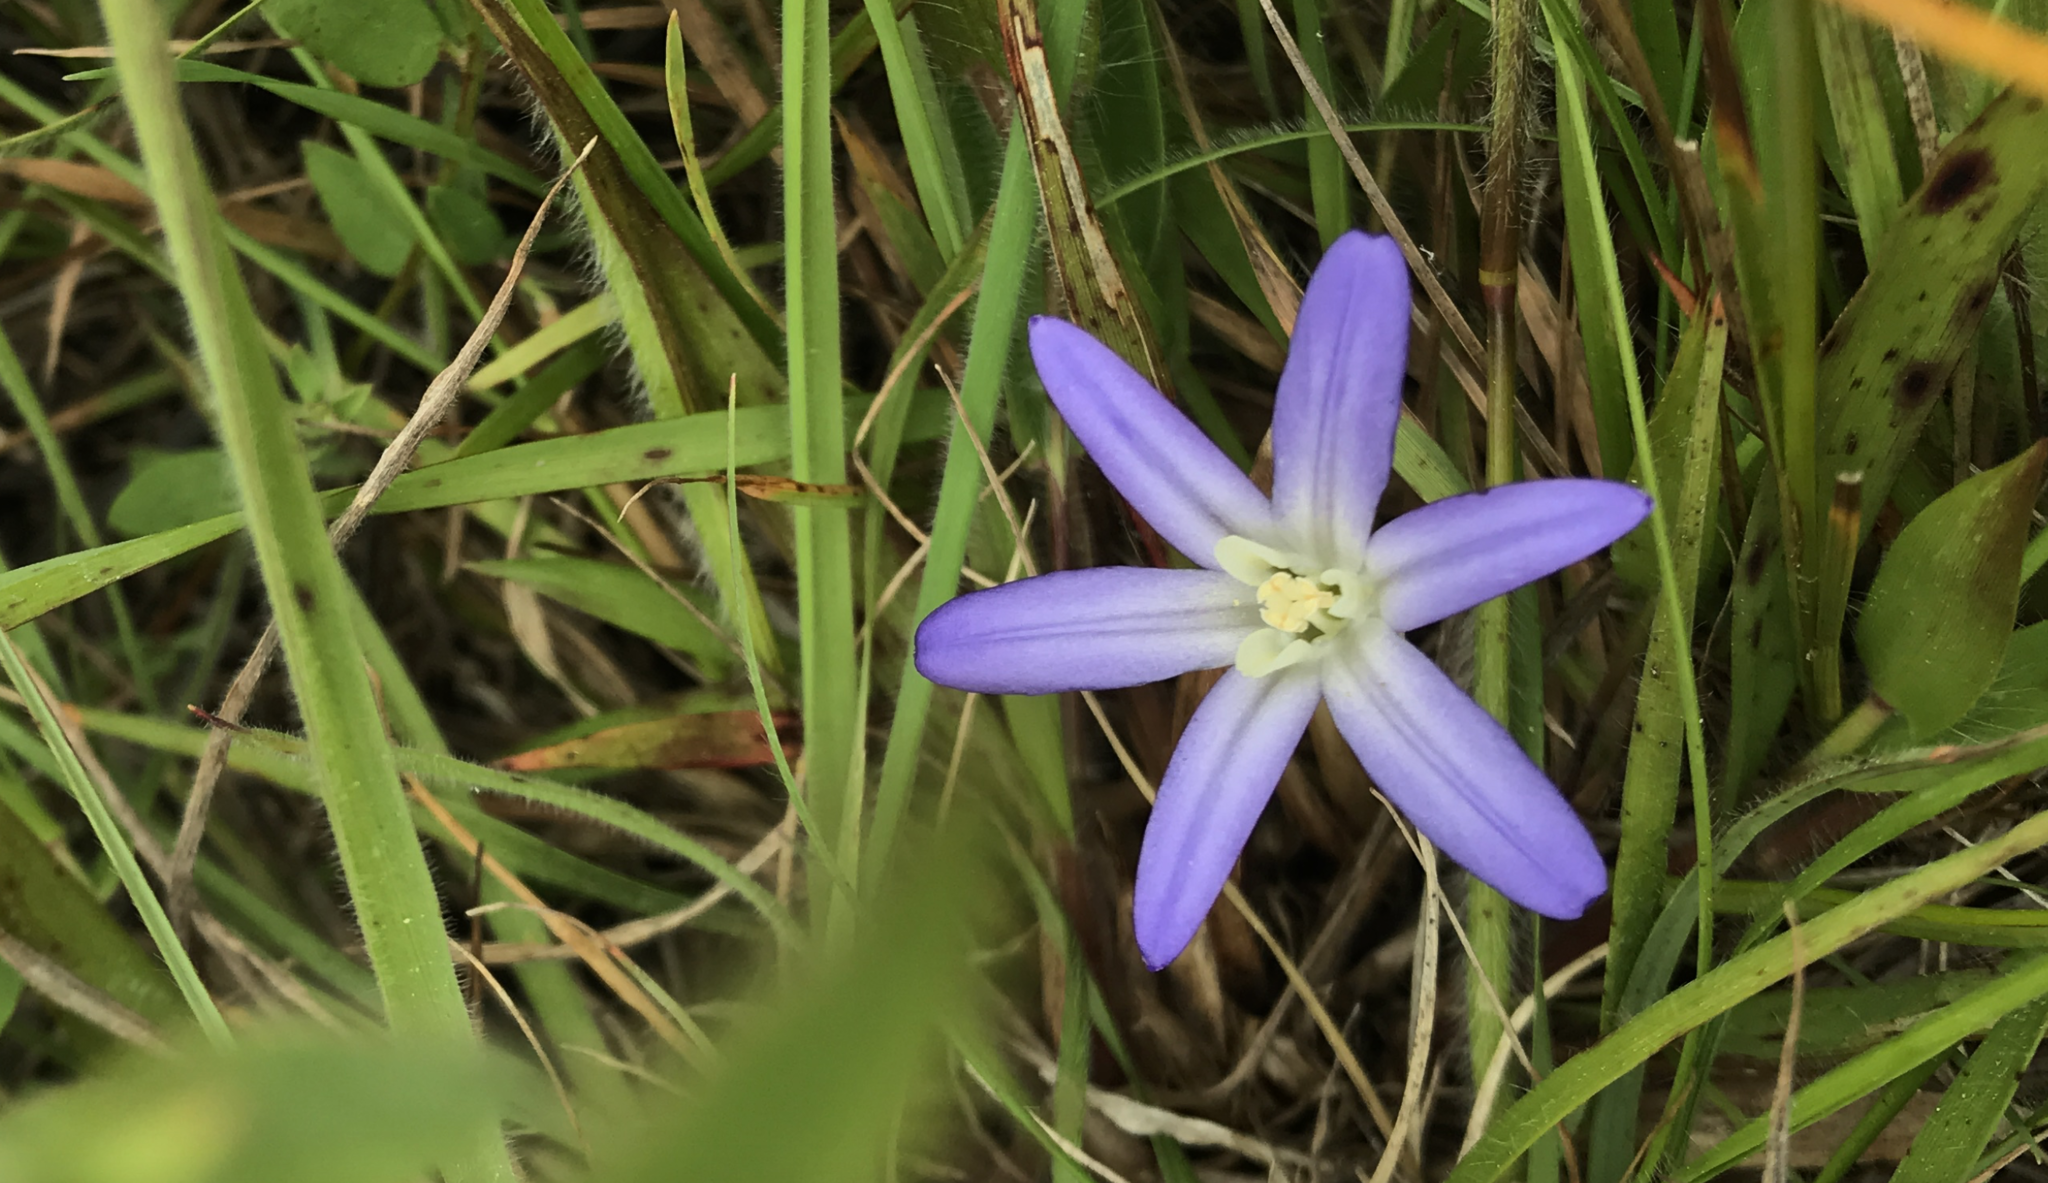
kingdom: Plantae
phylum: Tracheophyta
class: Liliopsida
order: Asparagales
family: Asparagaceae
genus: Brodiaea
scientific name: Brodiaea terrestris
